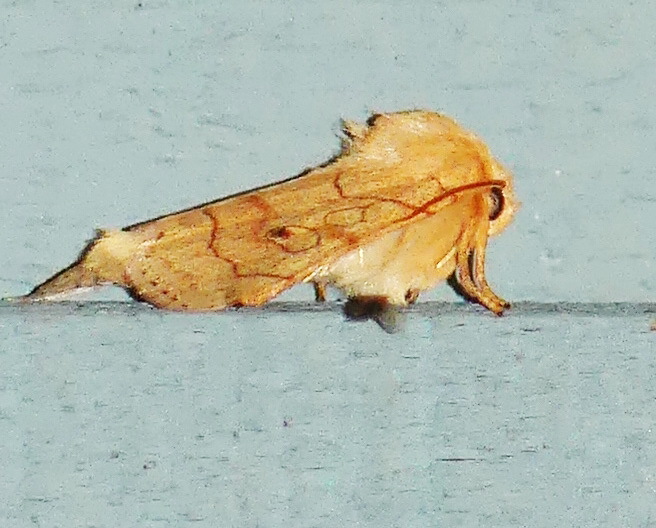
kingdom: Animalia
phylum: Arthropoda
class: Insecta
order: Lepidoptera
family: Noctuidae
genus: Enargia
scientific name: Enargia fausta
